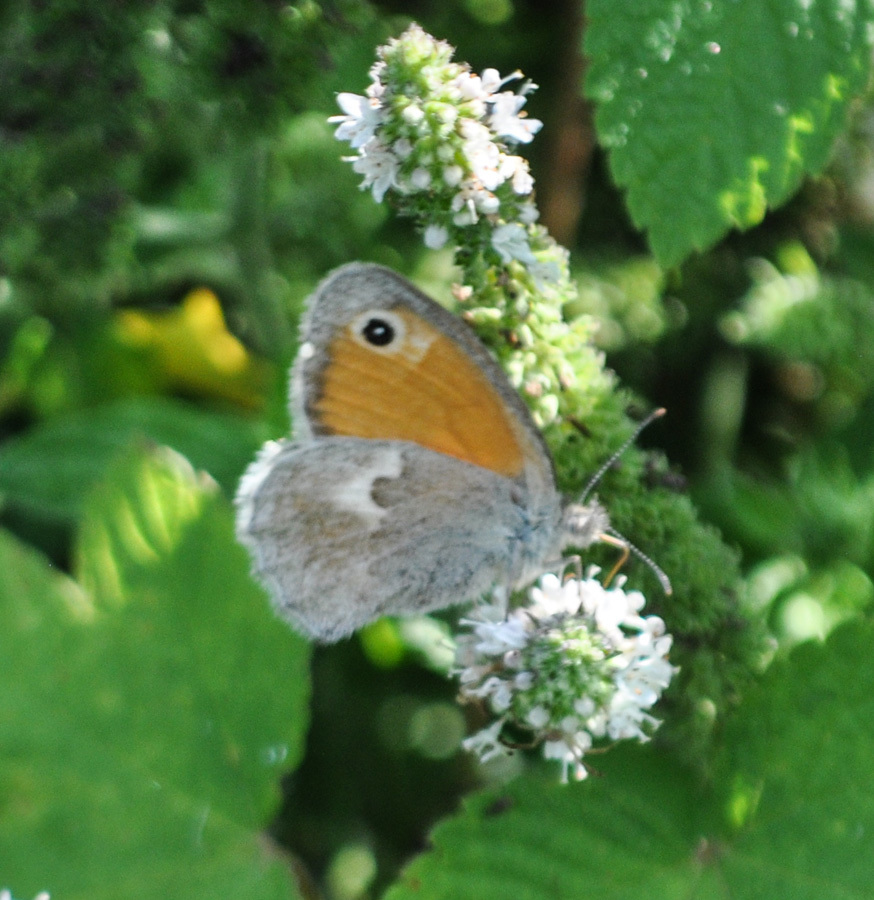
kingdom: Animalia
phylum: Arthropoda
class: Insecta
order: Lepidoptera
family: Nymphalidae
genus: Coenonympha
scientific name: Coenonympha pamphilus
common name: Small heath
